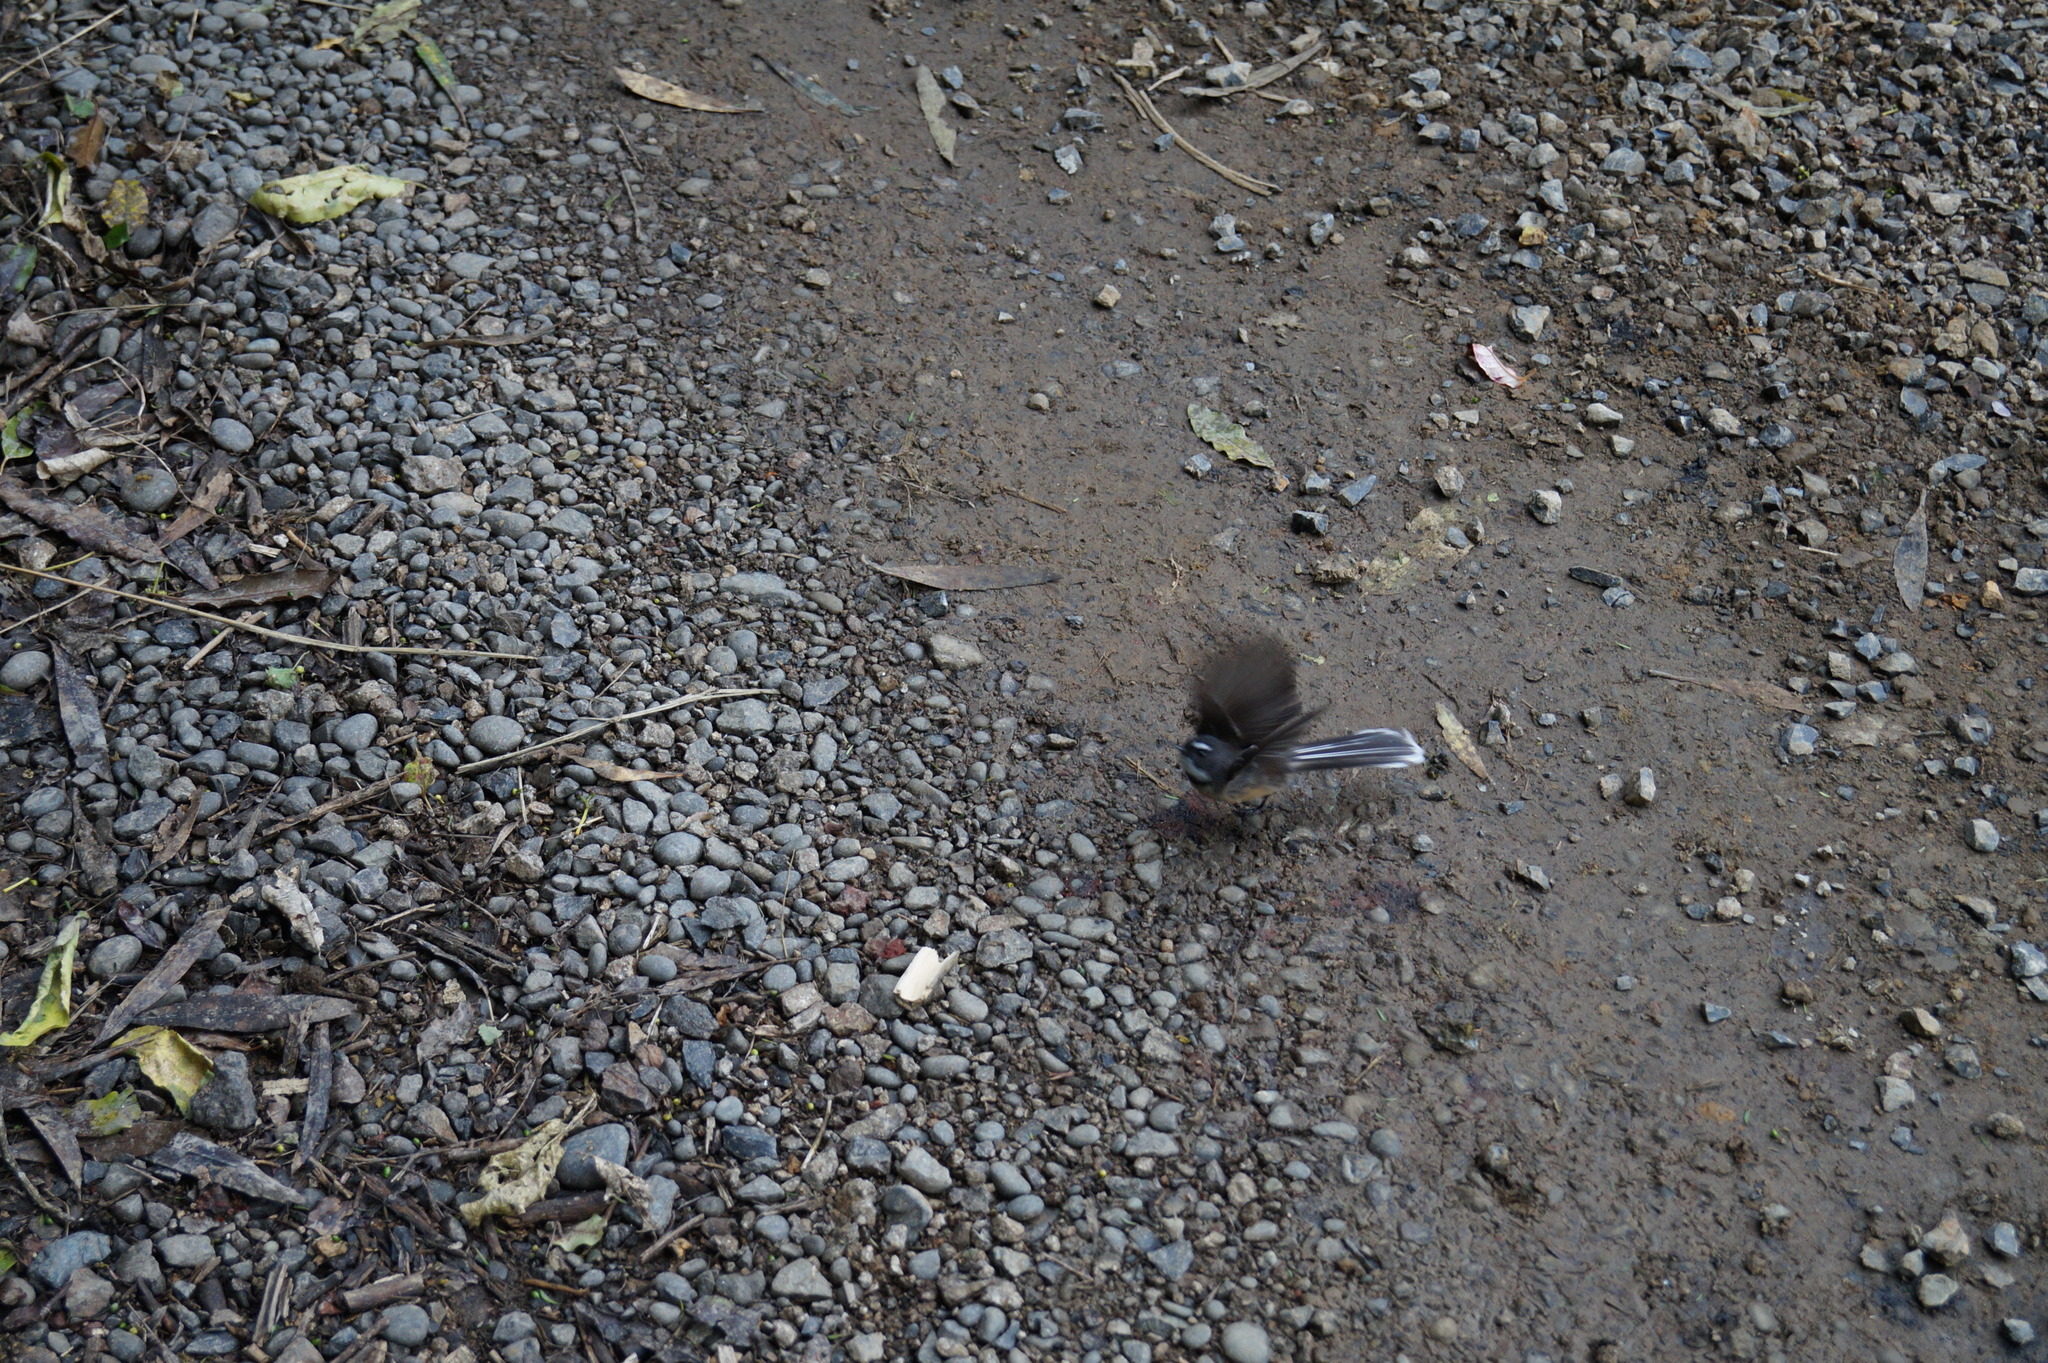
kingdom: Animalia
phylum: Chordata
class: Aves
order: Passeriformes
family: Rhipiduridae
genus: Rhipidura
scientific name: Rhipidura fuliginosa
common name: New zealand fantail
